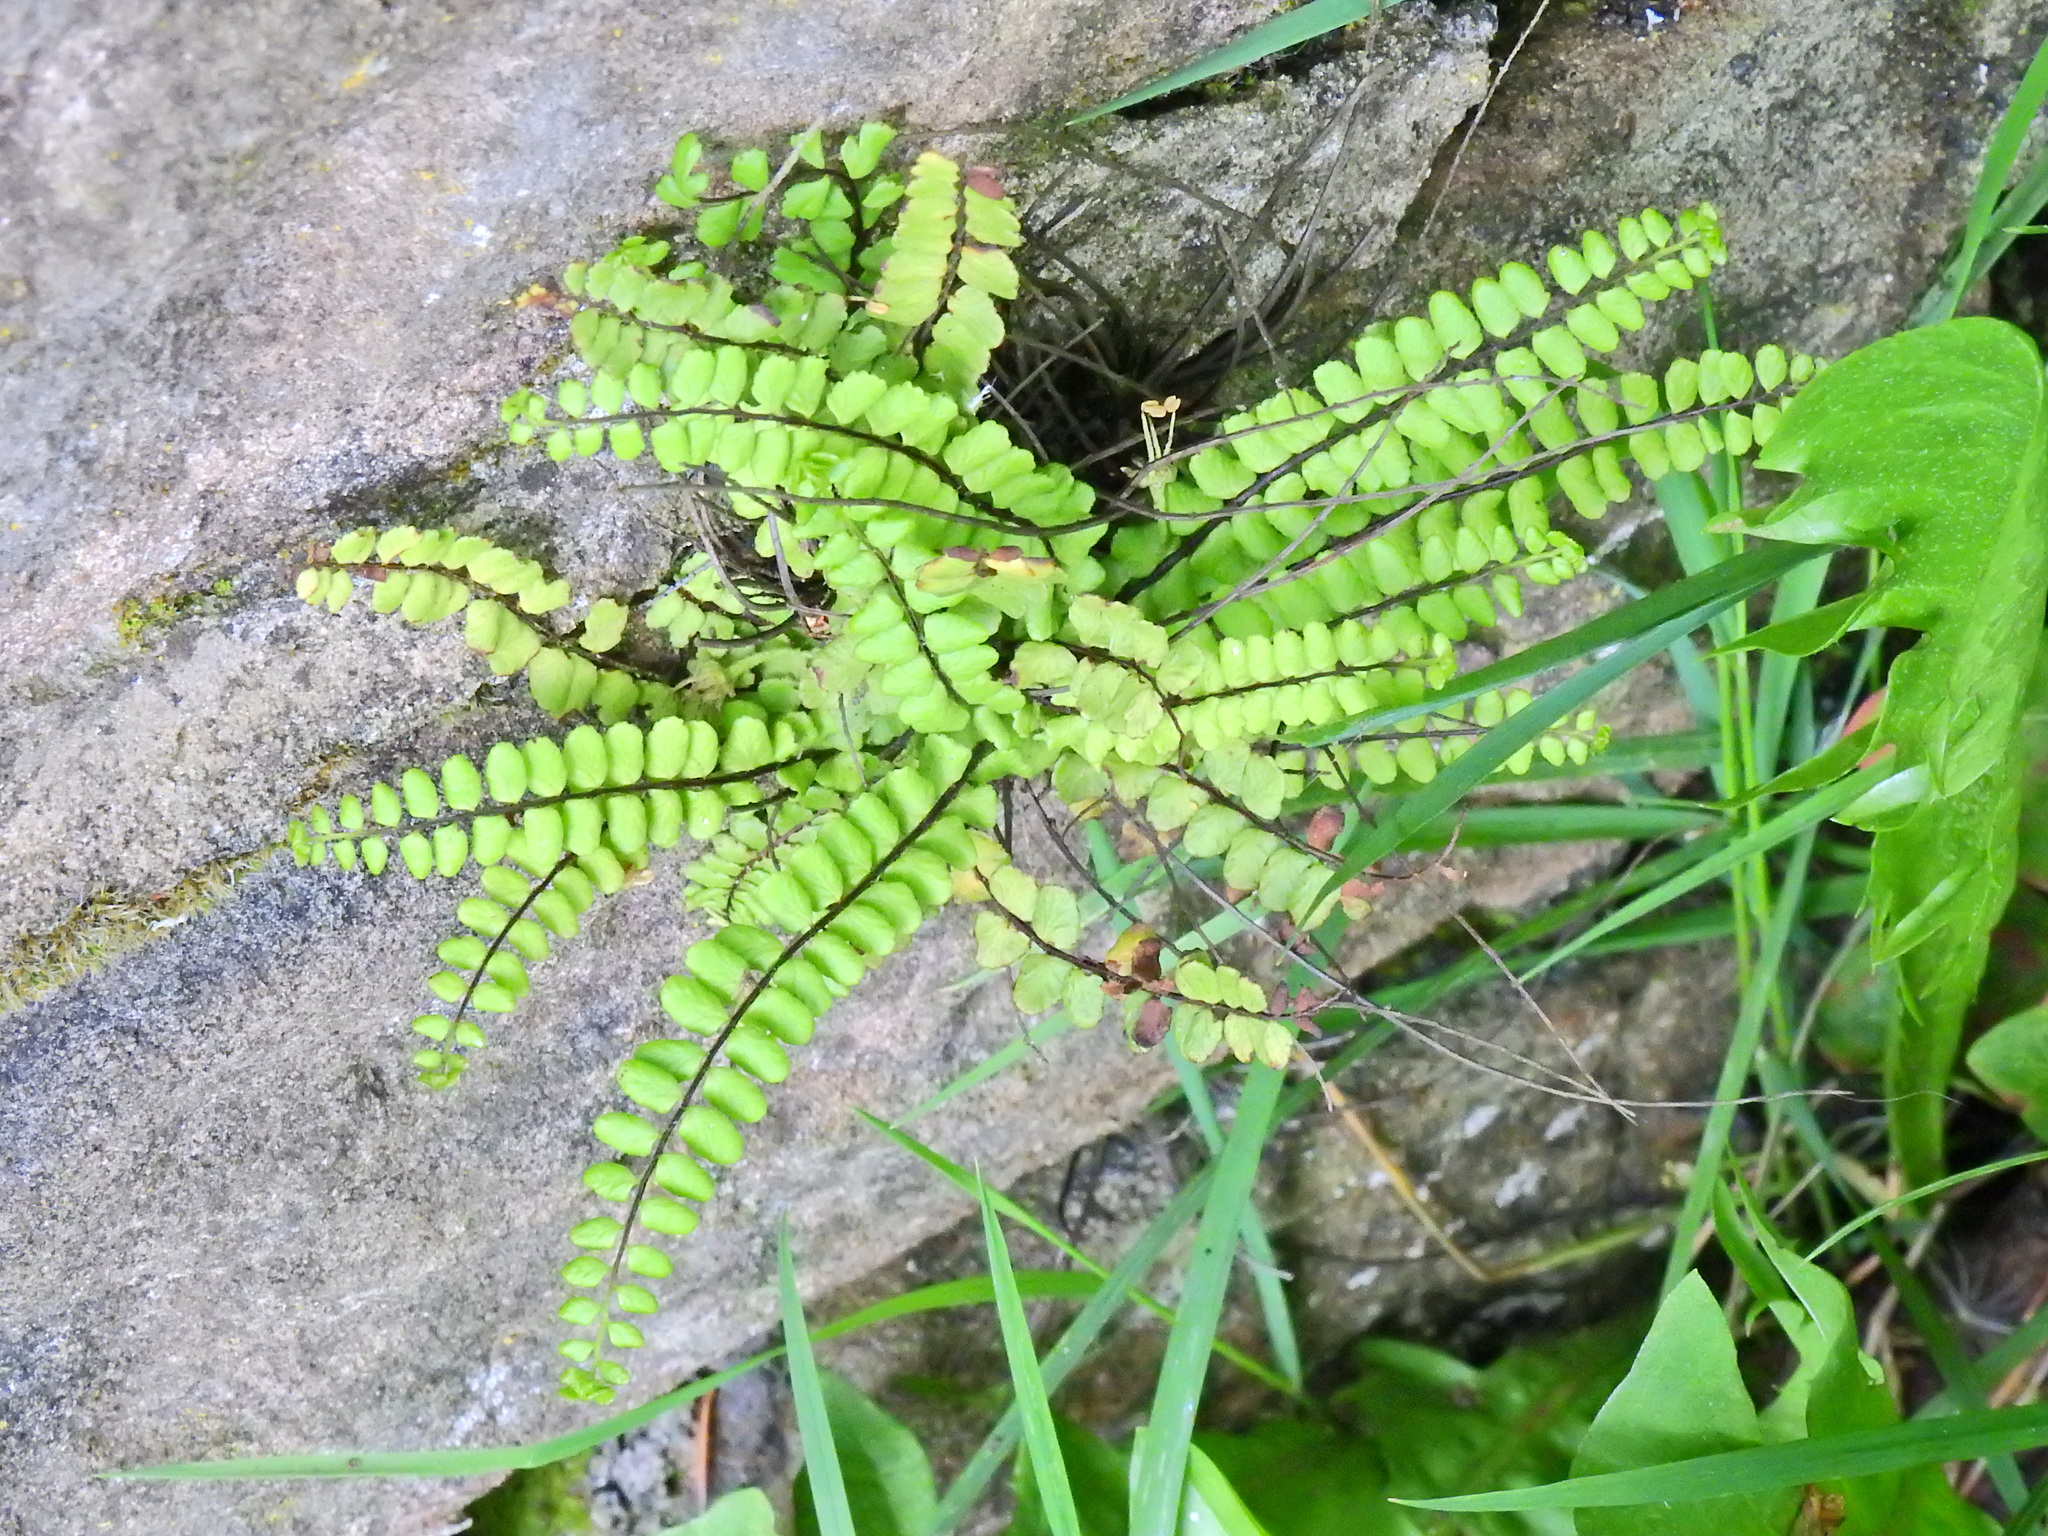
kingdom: Plantae
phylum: Tracheophyta
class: Polypodiopsida
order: Polypodiales
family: Aspleniaceae
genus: Asplenium
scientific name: Asplenium trichomanes
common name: Maidenhair spleenwort
